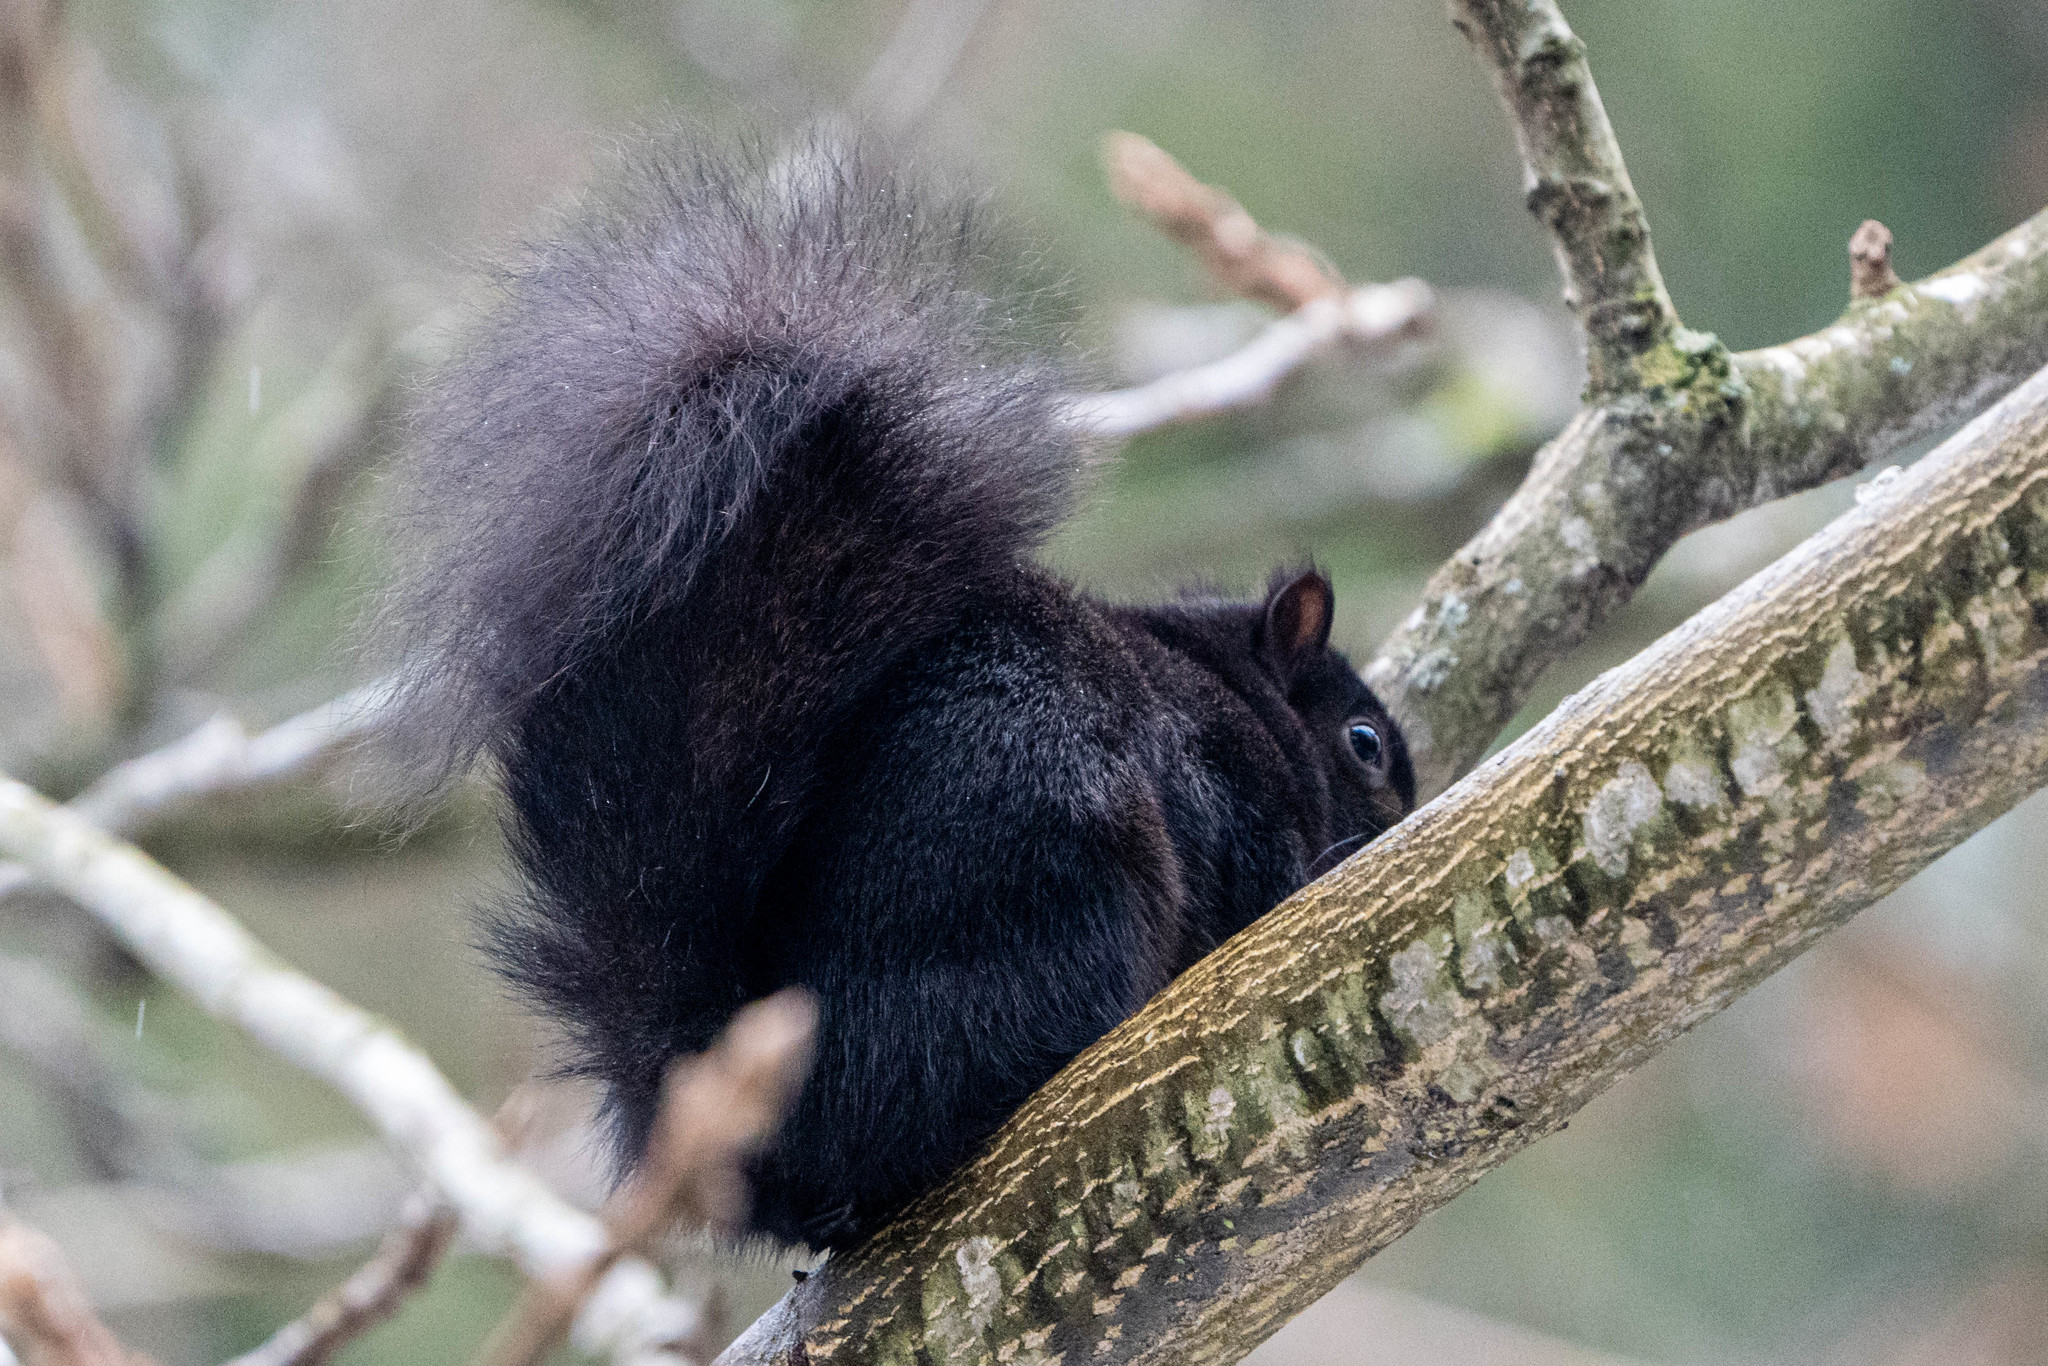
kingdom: Animalia
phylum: Chordata
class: Mammalia
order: Rodentia
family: Sciuridae
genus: Sciurus
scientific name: Sciurus carolinensis
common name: Eastern gray squirrel
